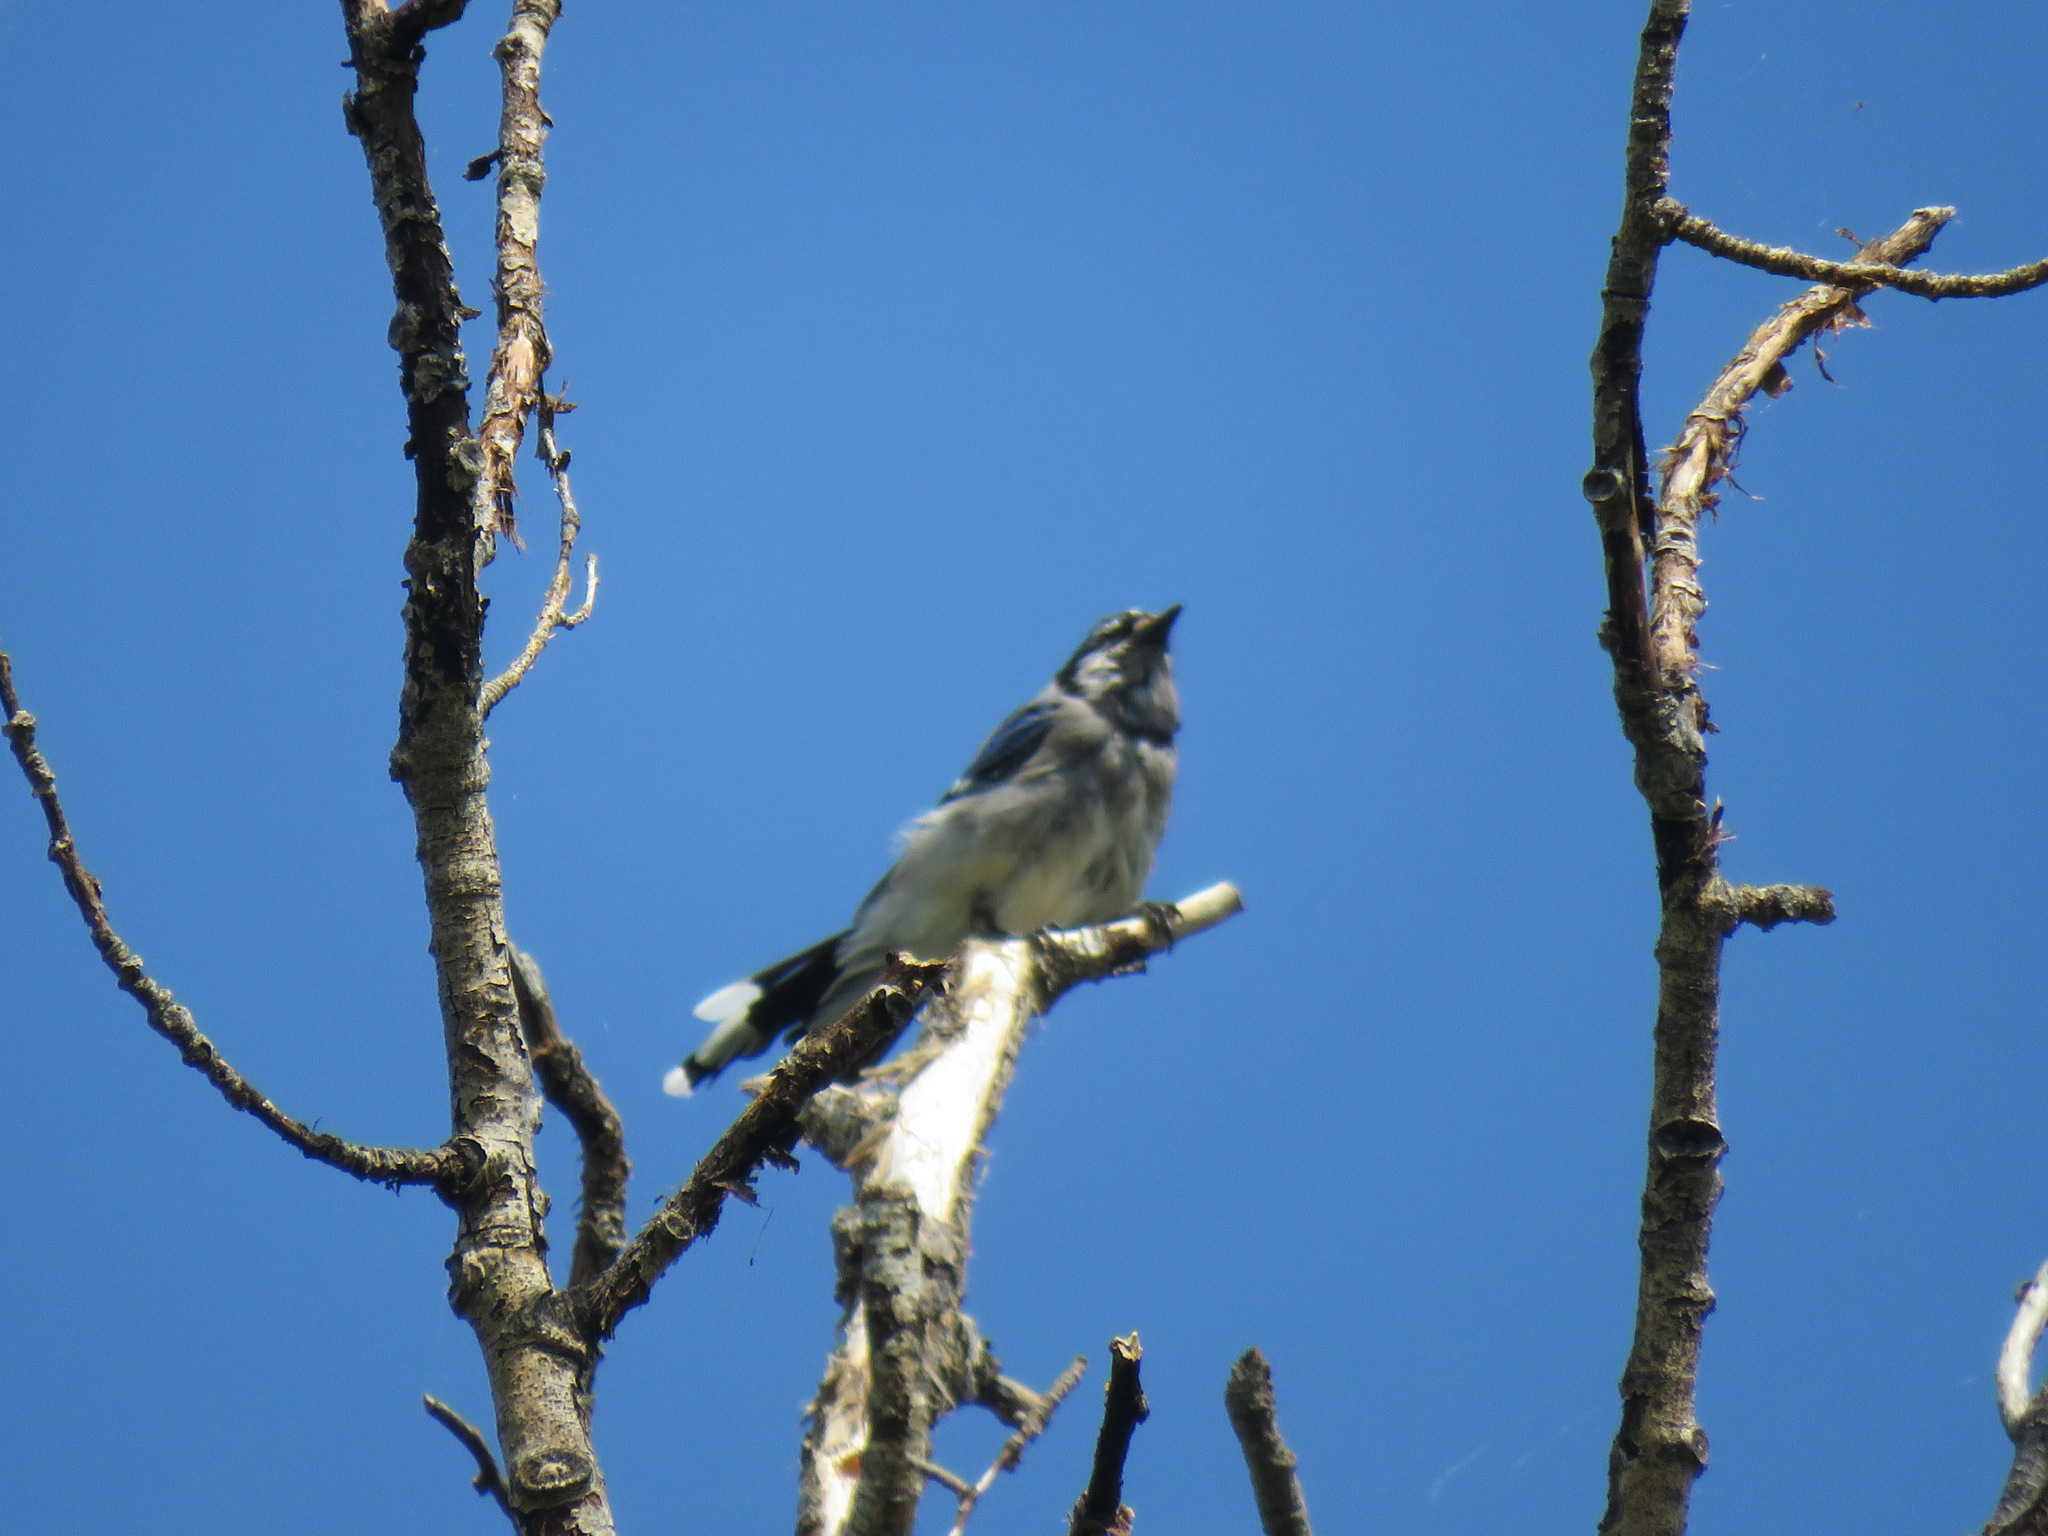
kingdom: Animalia
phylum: Chordata
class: Aves
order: Passeriformes
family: Corvidae
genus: Cyanocitta
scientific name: Cyanocitta cristata
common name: Blue jay
